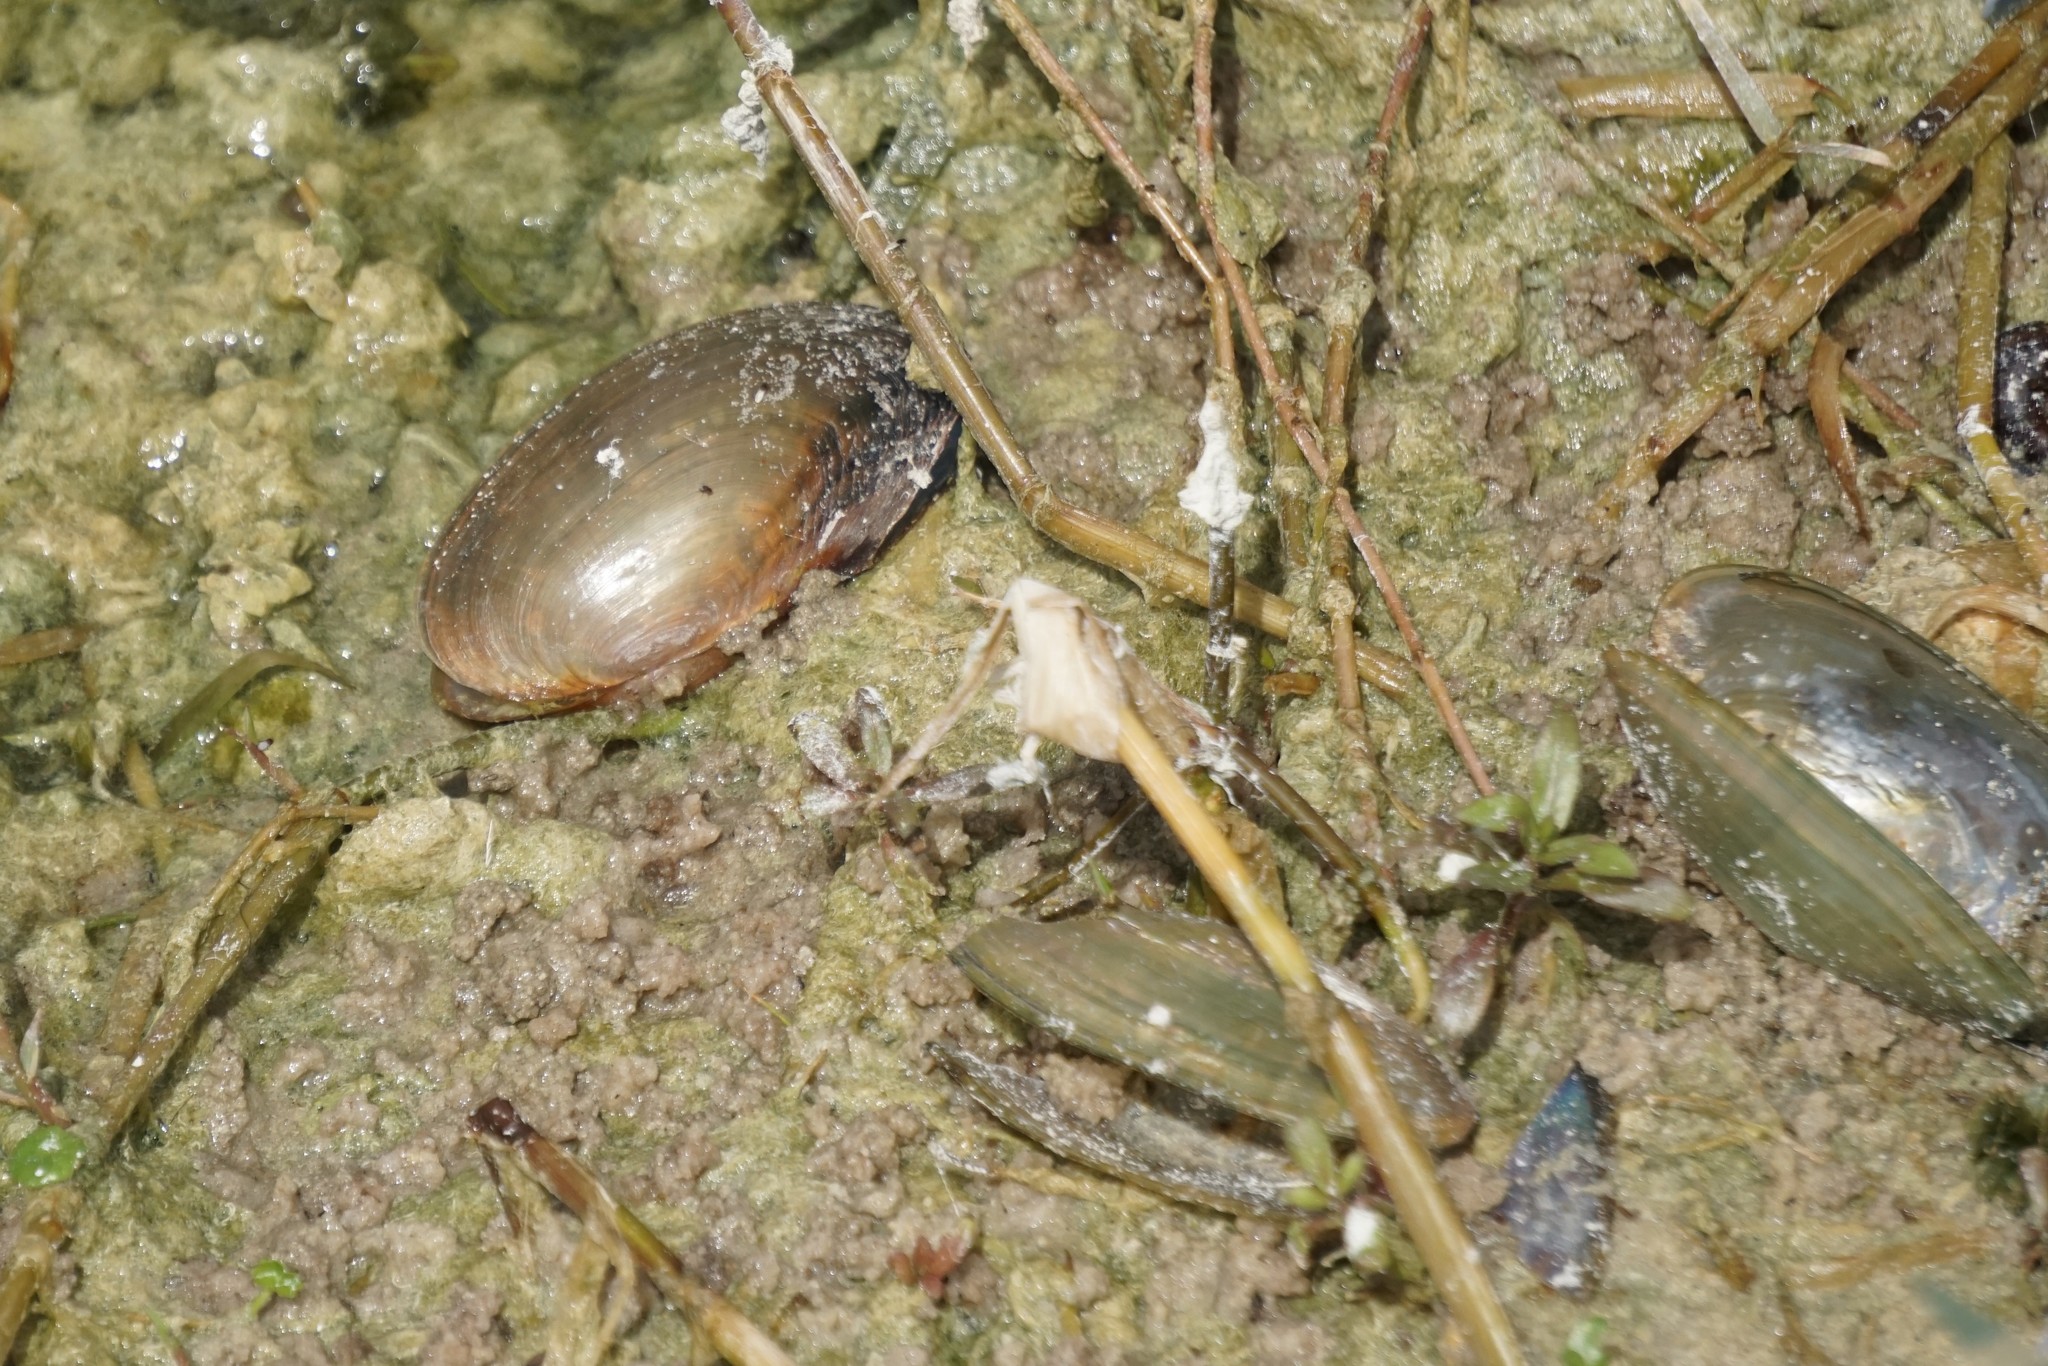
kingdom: Animalia
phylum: Mollusca
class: Bivalvia
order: Unionida
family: Unionidae
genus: Utterbackia
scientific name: Utterbackia imbecillis
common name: Paper pondshell
